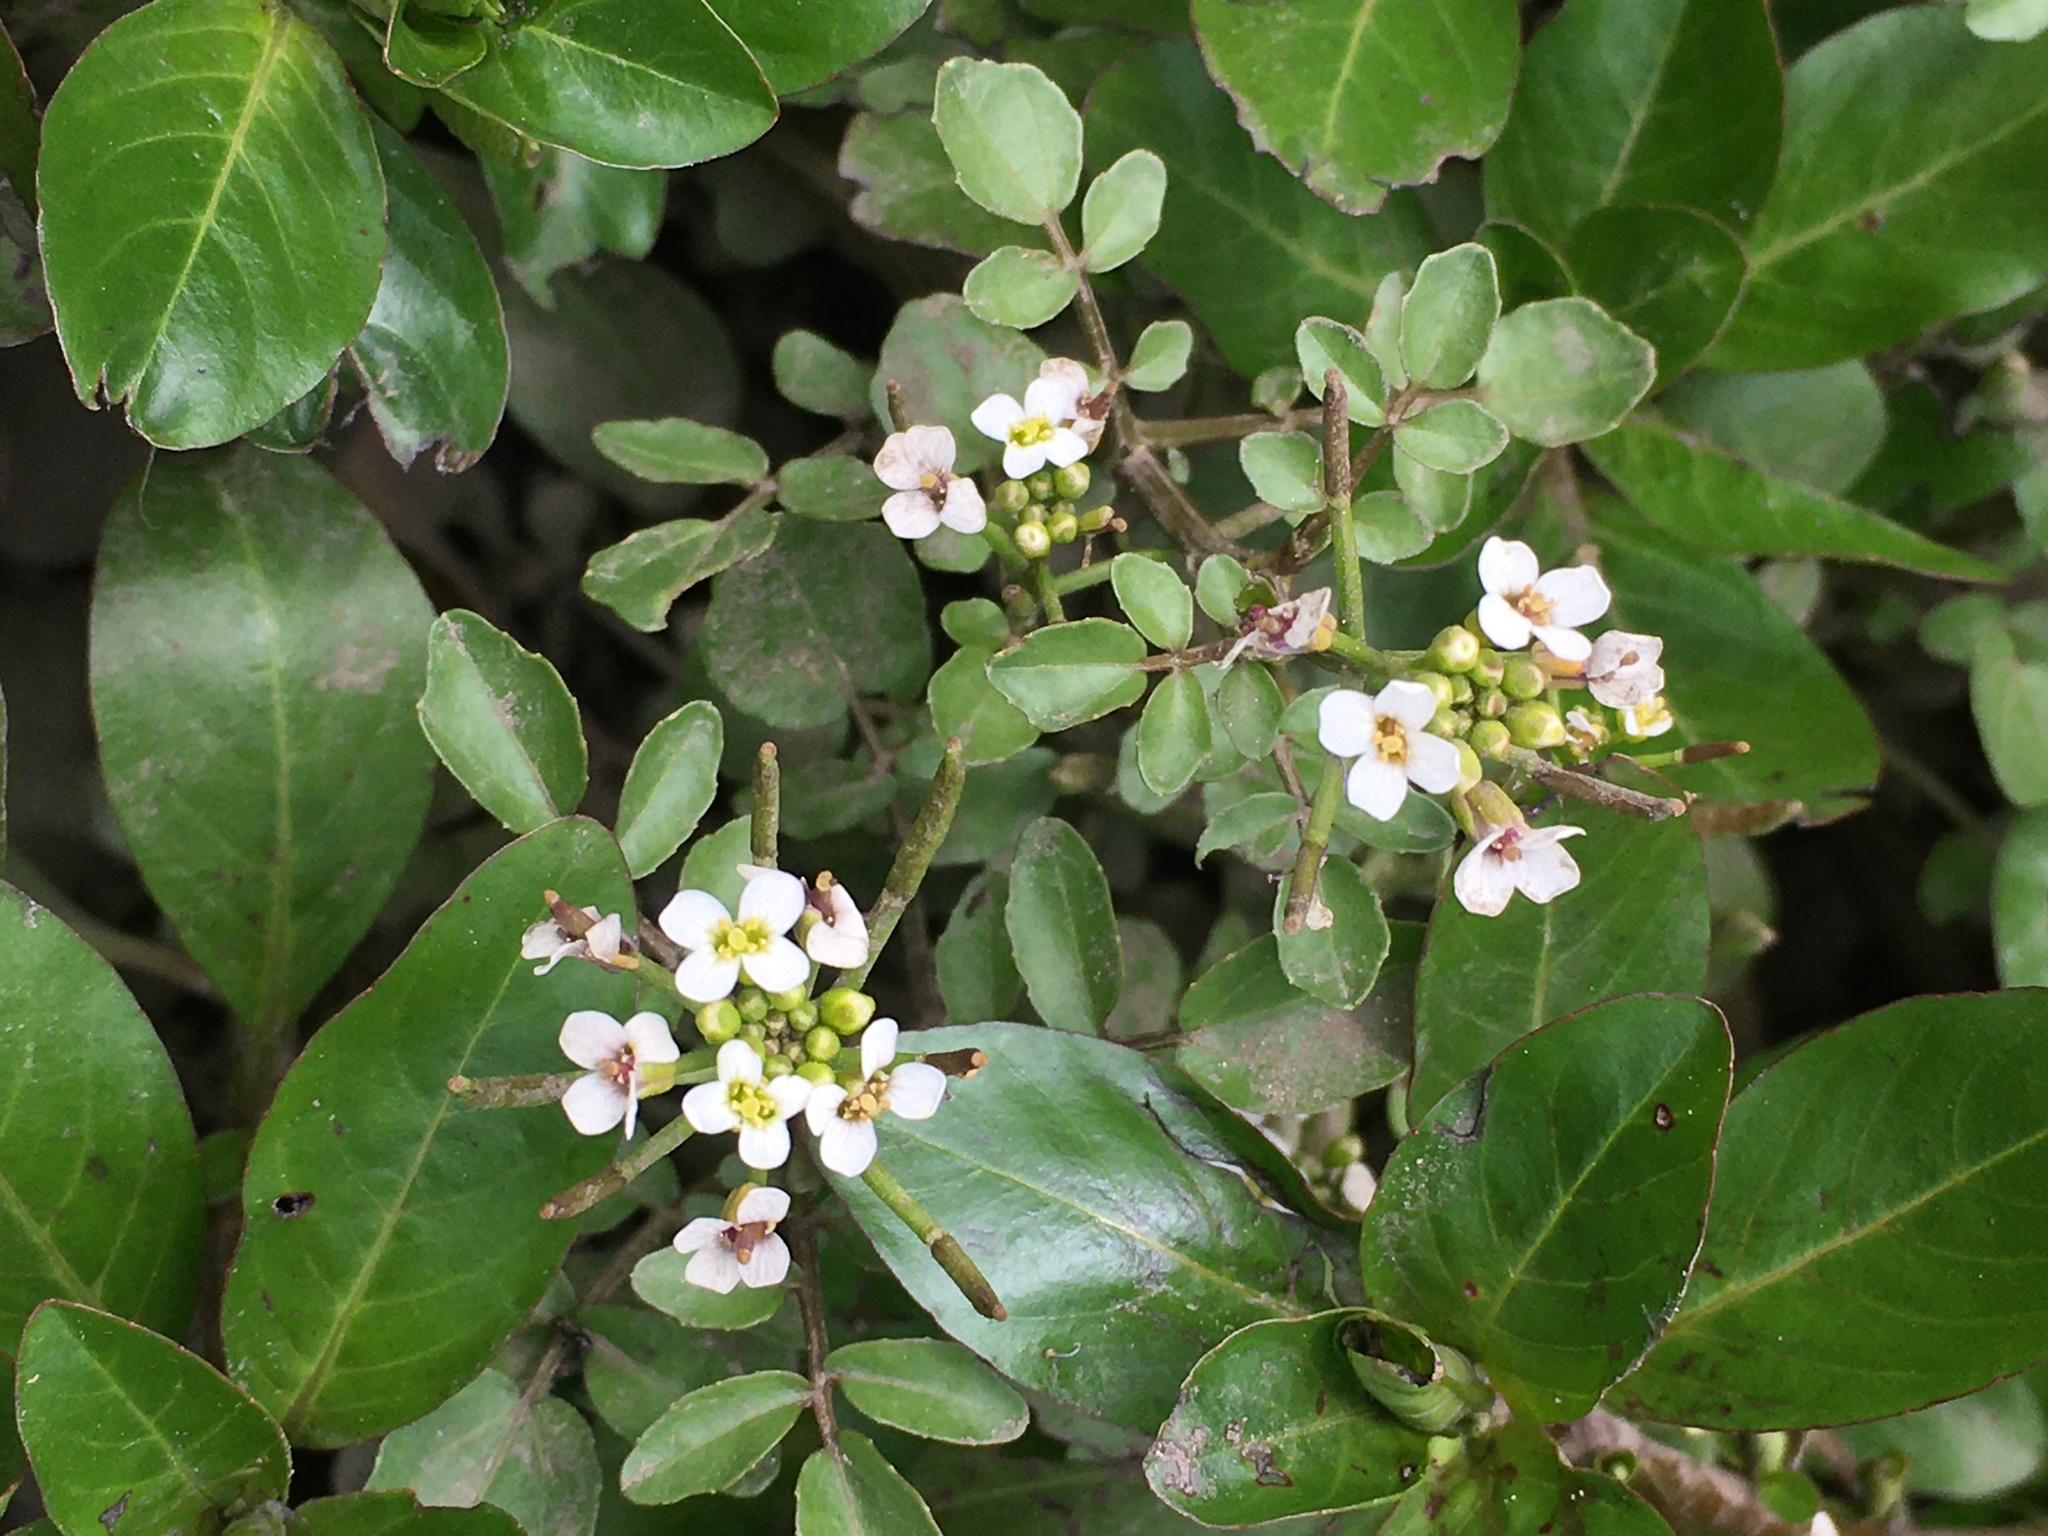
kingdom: Plantae
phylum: Tracheophyta
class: Magnoliopsida
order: Brassicales
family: Brassicaceae
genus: Nasturtium
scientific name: Nasturtium officinale
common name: Watercress
